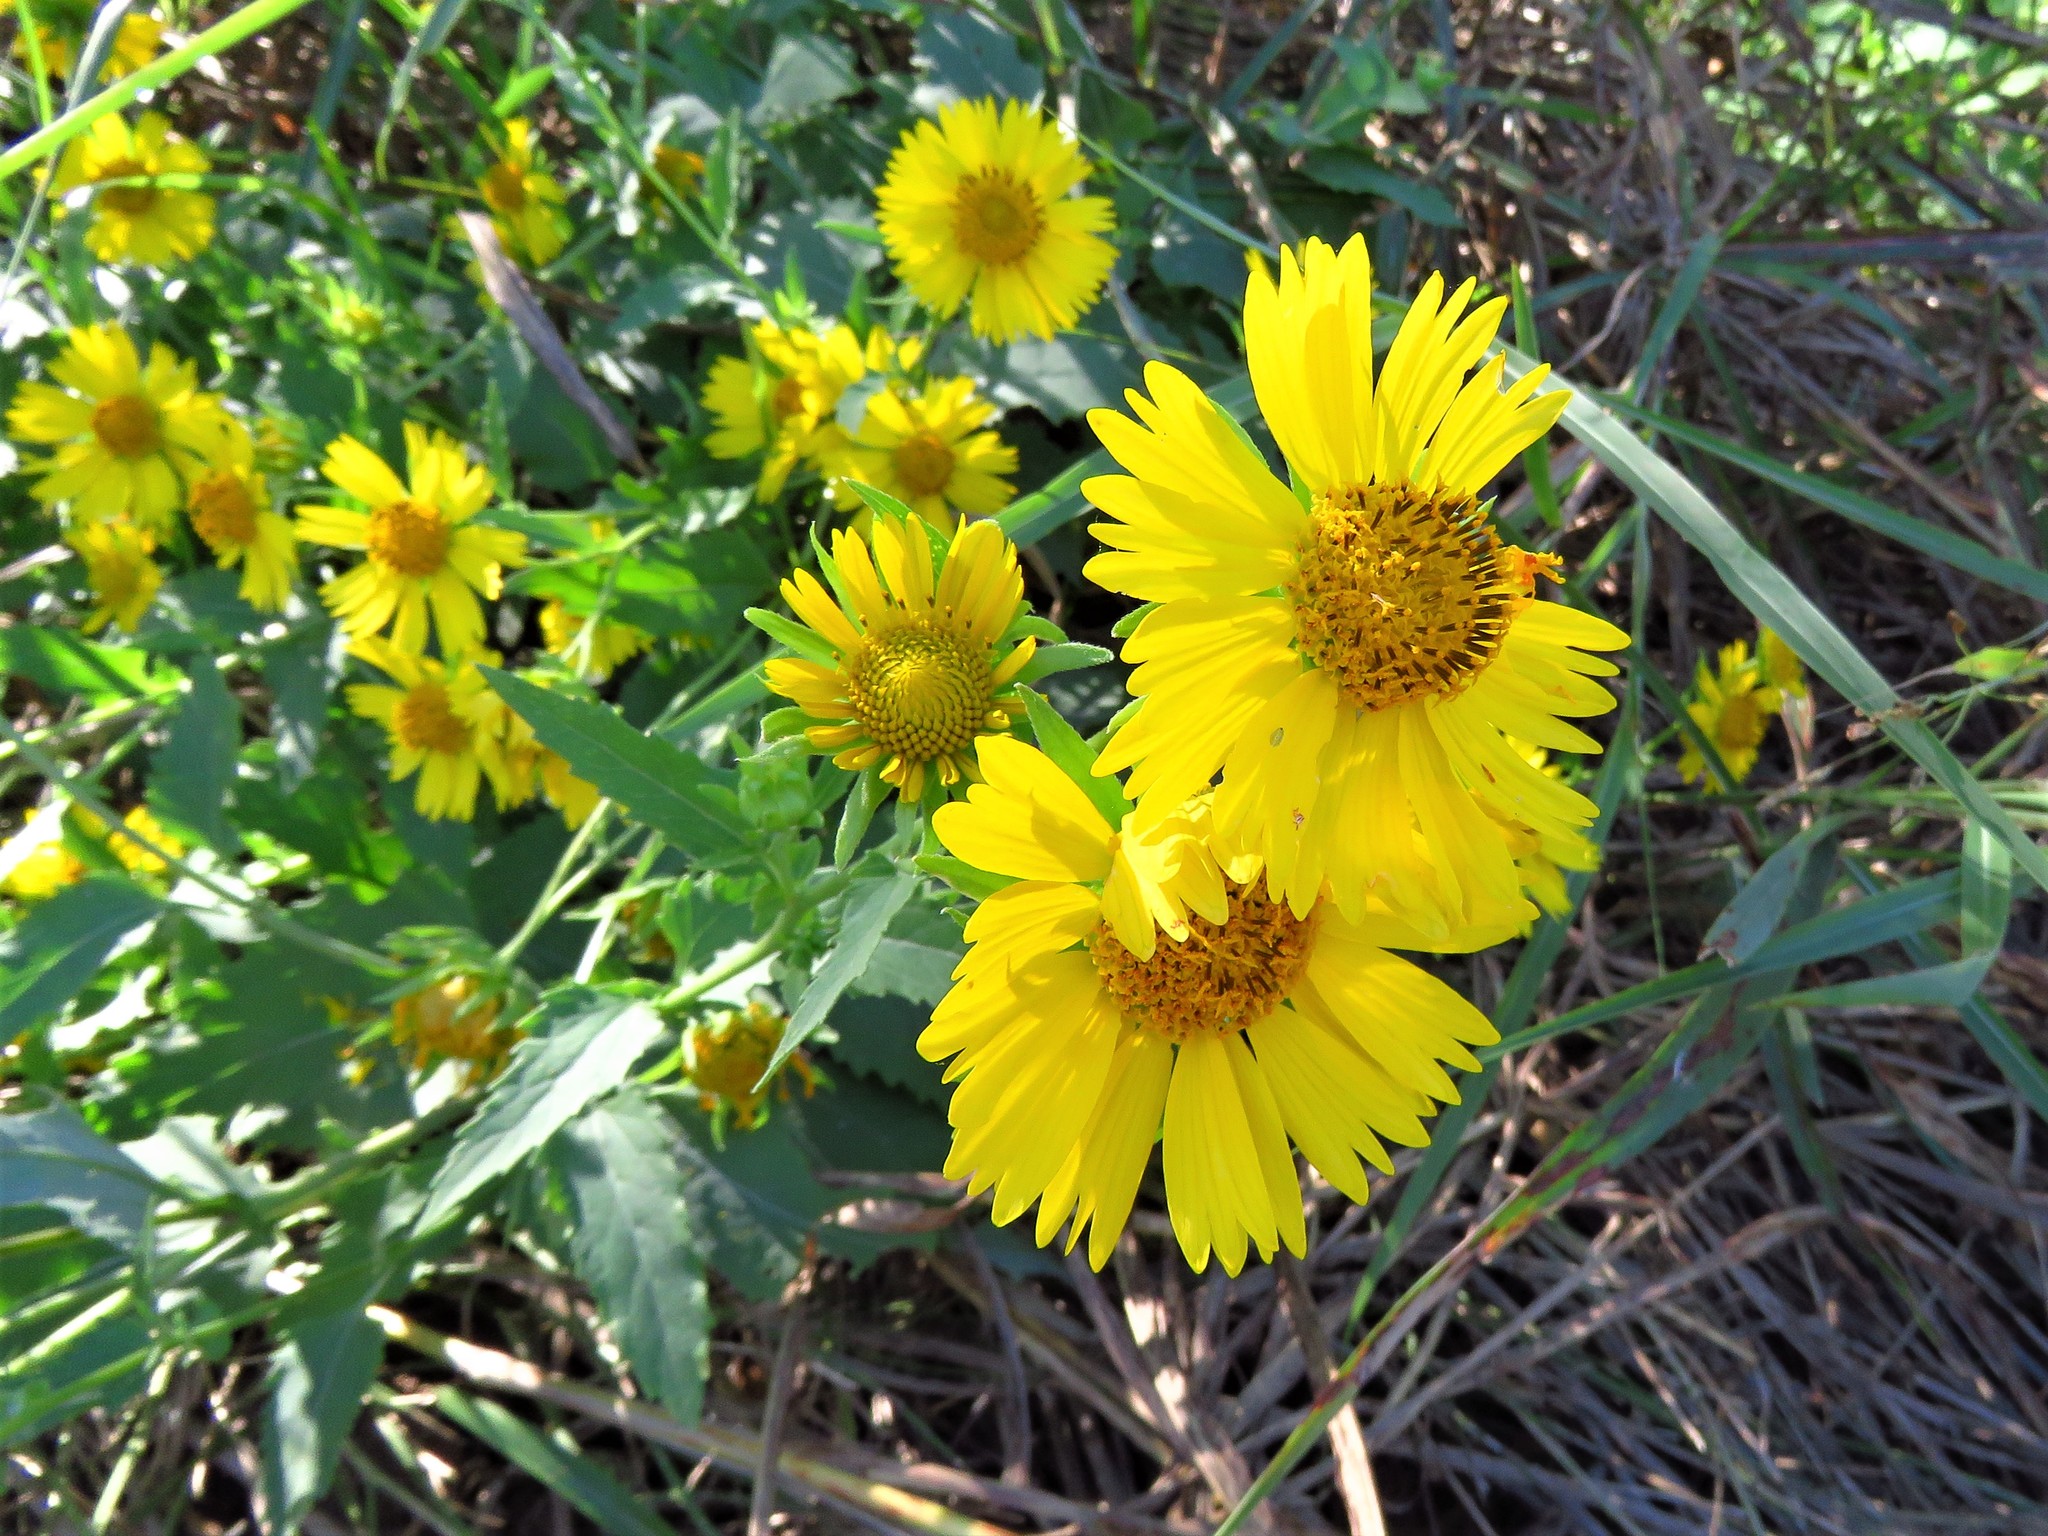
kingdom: Plantae
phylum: Tracheophyta
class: Magnoliopsida
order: Asterales
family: Asteraceae
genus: Verbesina
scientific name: Verbesina encelioides
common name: Golden crownbeard
